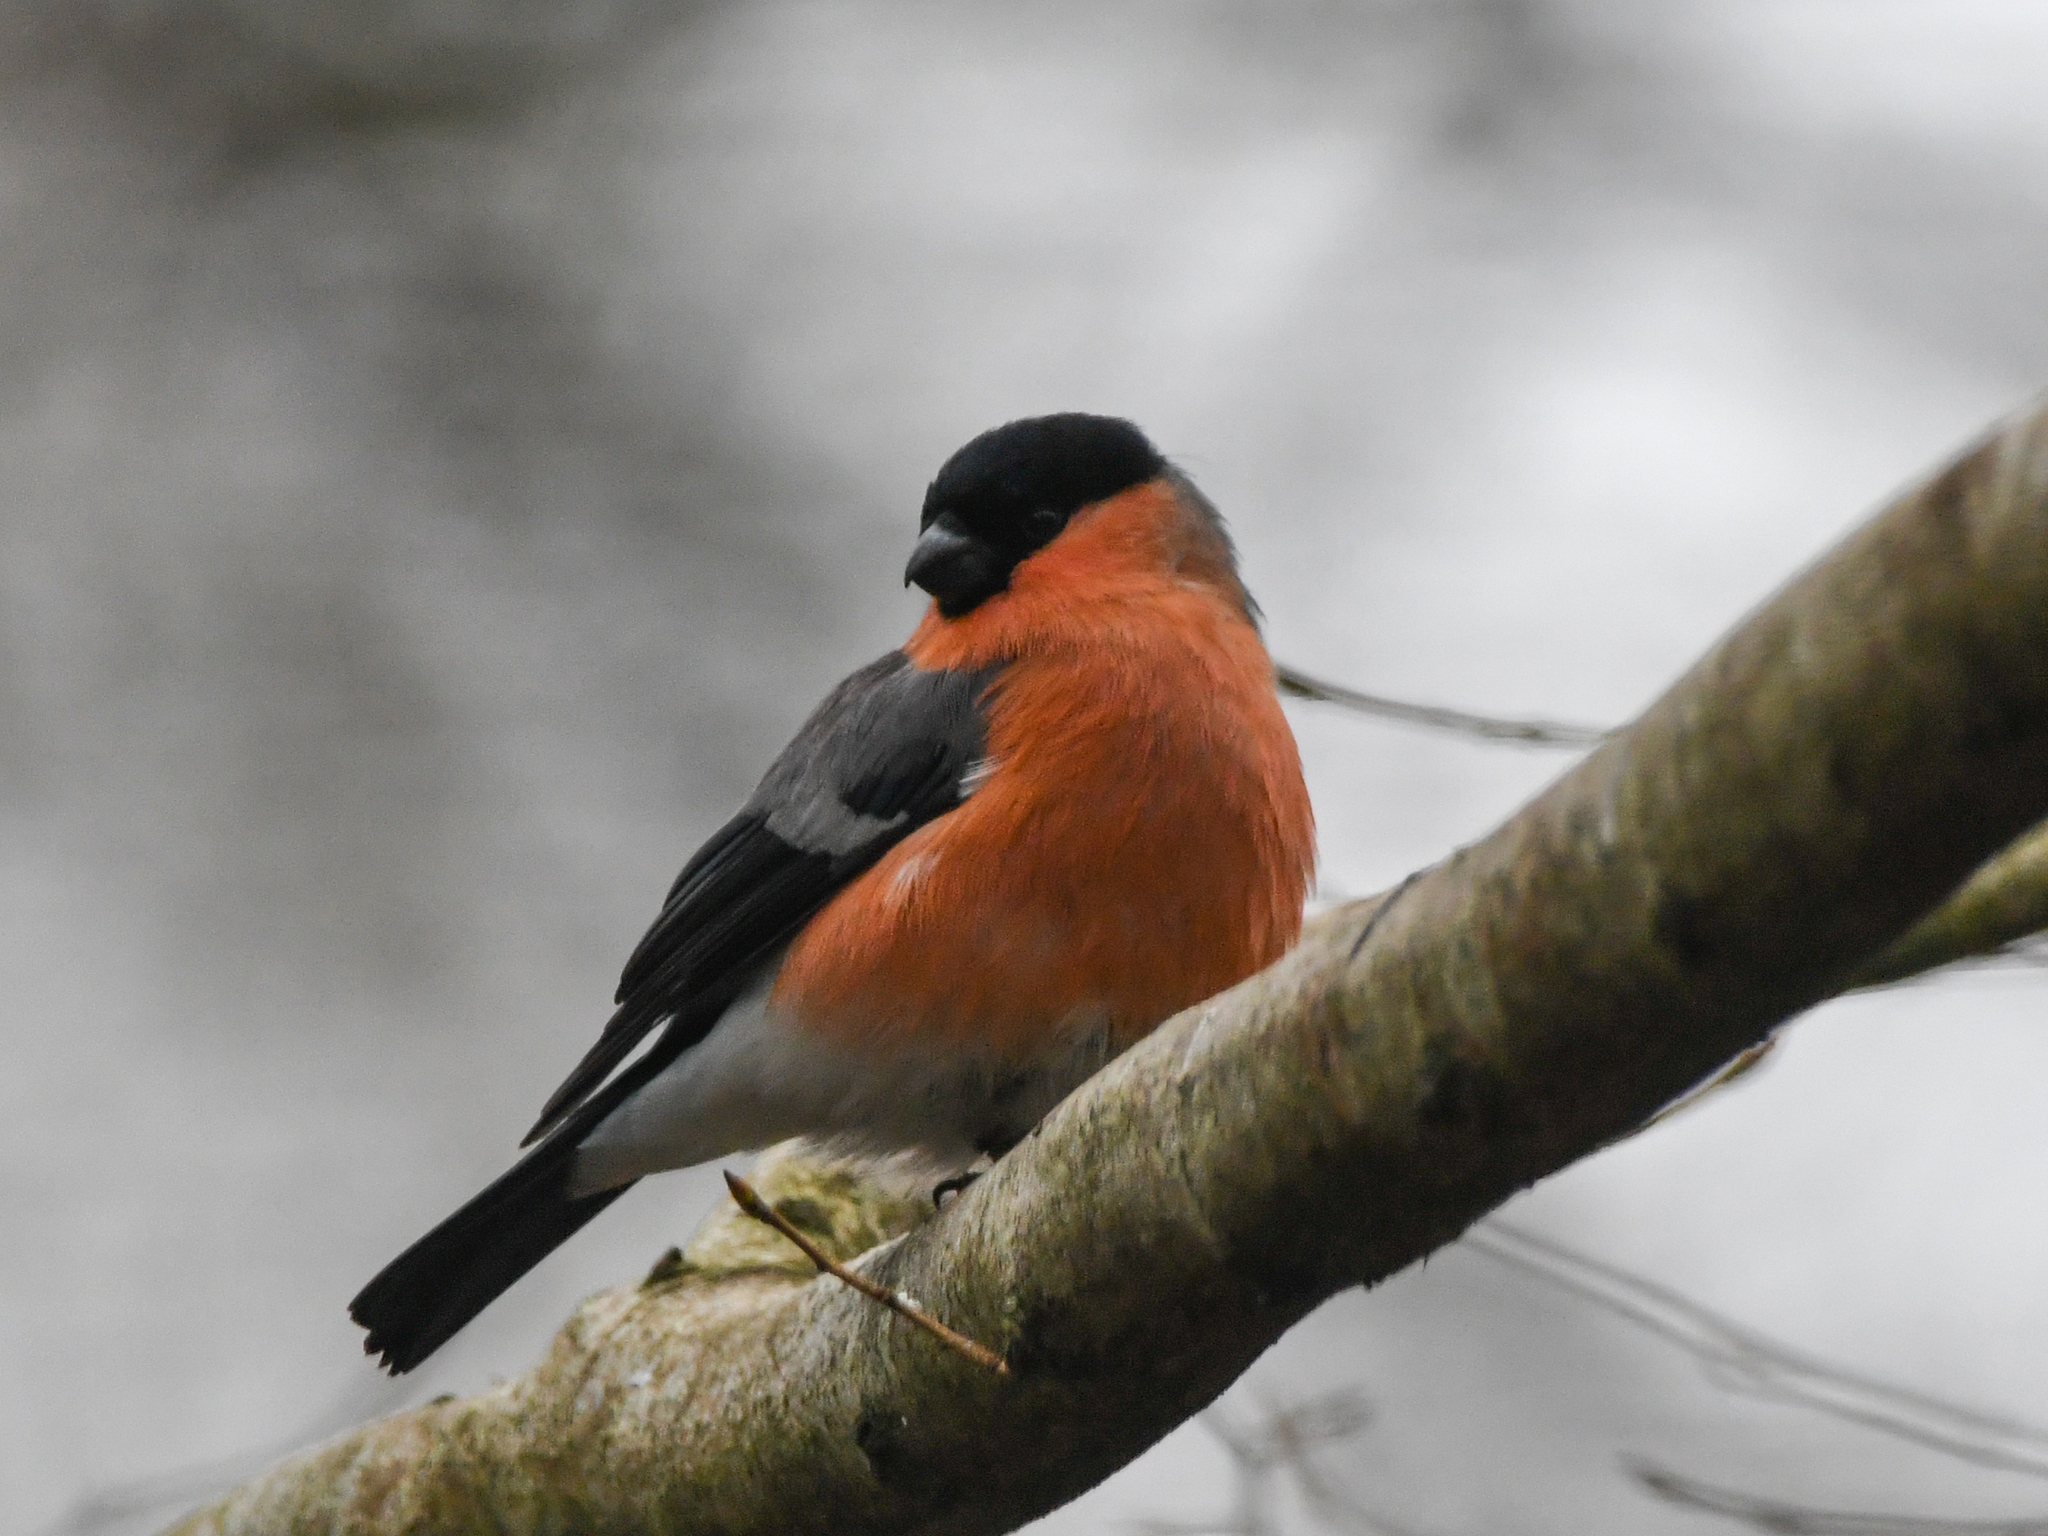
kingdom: Animalia
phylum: Chordata
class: Aves
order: Passeriformes
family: Fringillidae
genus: Pyrrhula
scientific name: Pyrrhula pyrrhula
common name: Eurasian bullfinch
